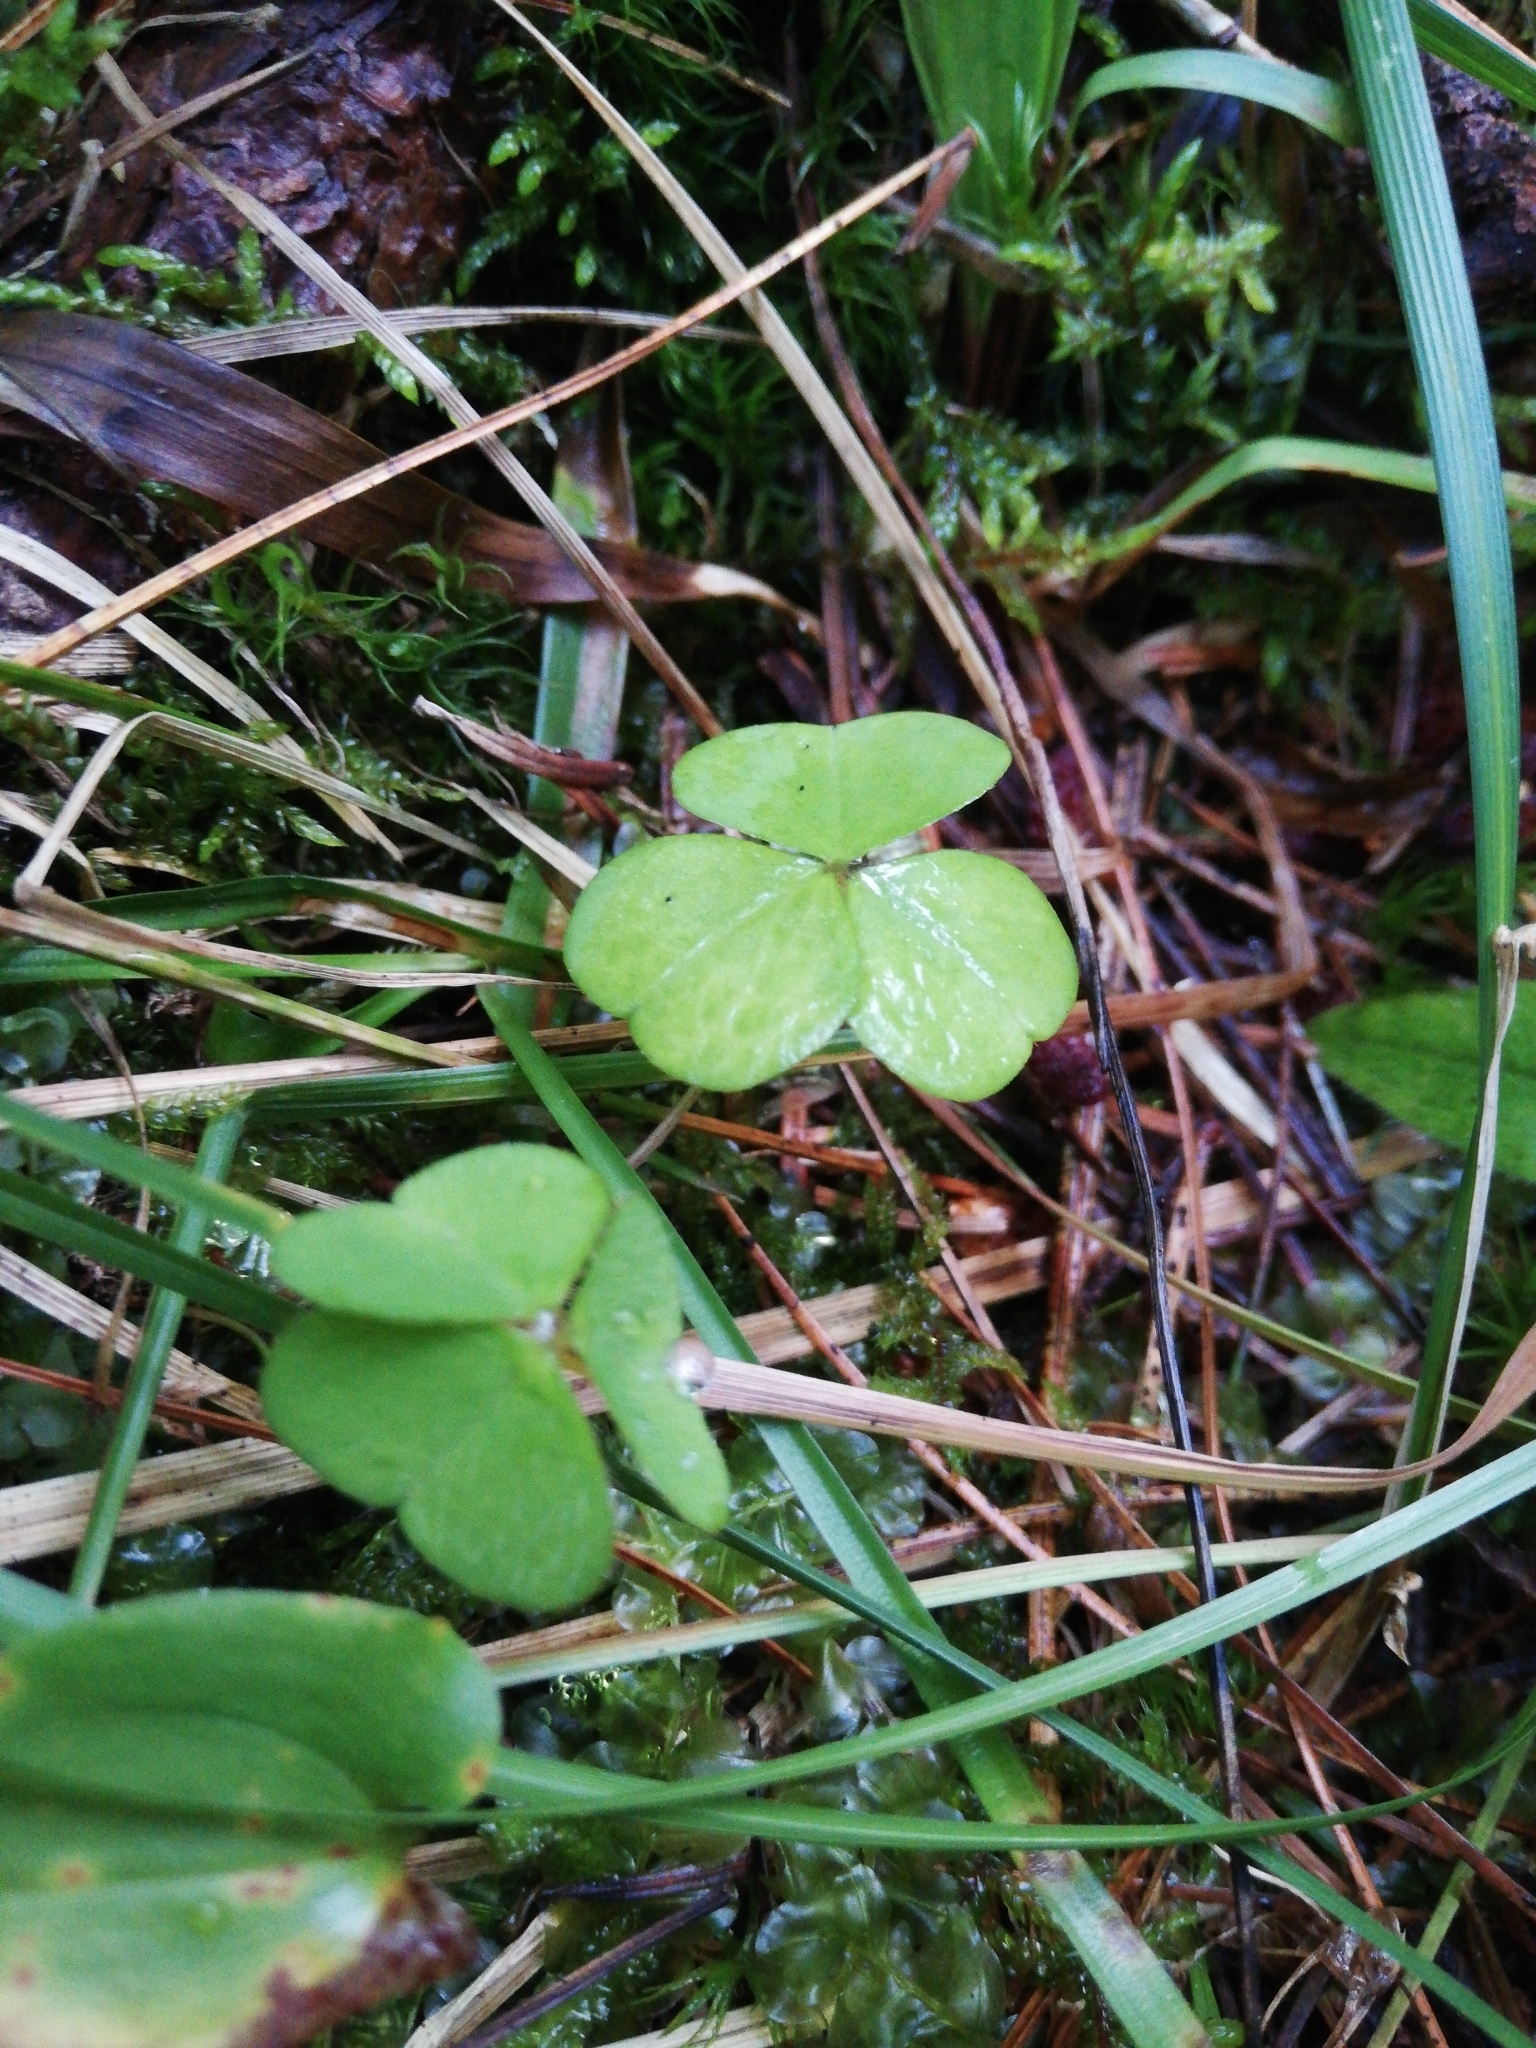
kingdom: Plantae
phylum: Tracheophyta
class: Magnoliopsida
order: Oxalidales
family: Oxalidaceae
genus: Oxalis
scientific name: Oxalis acetosella
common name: Wood-sorrel
